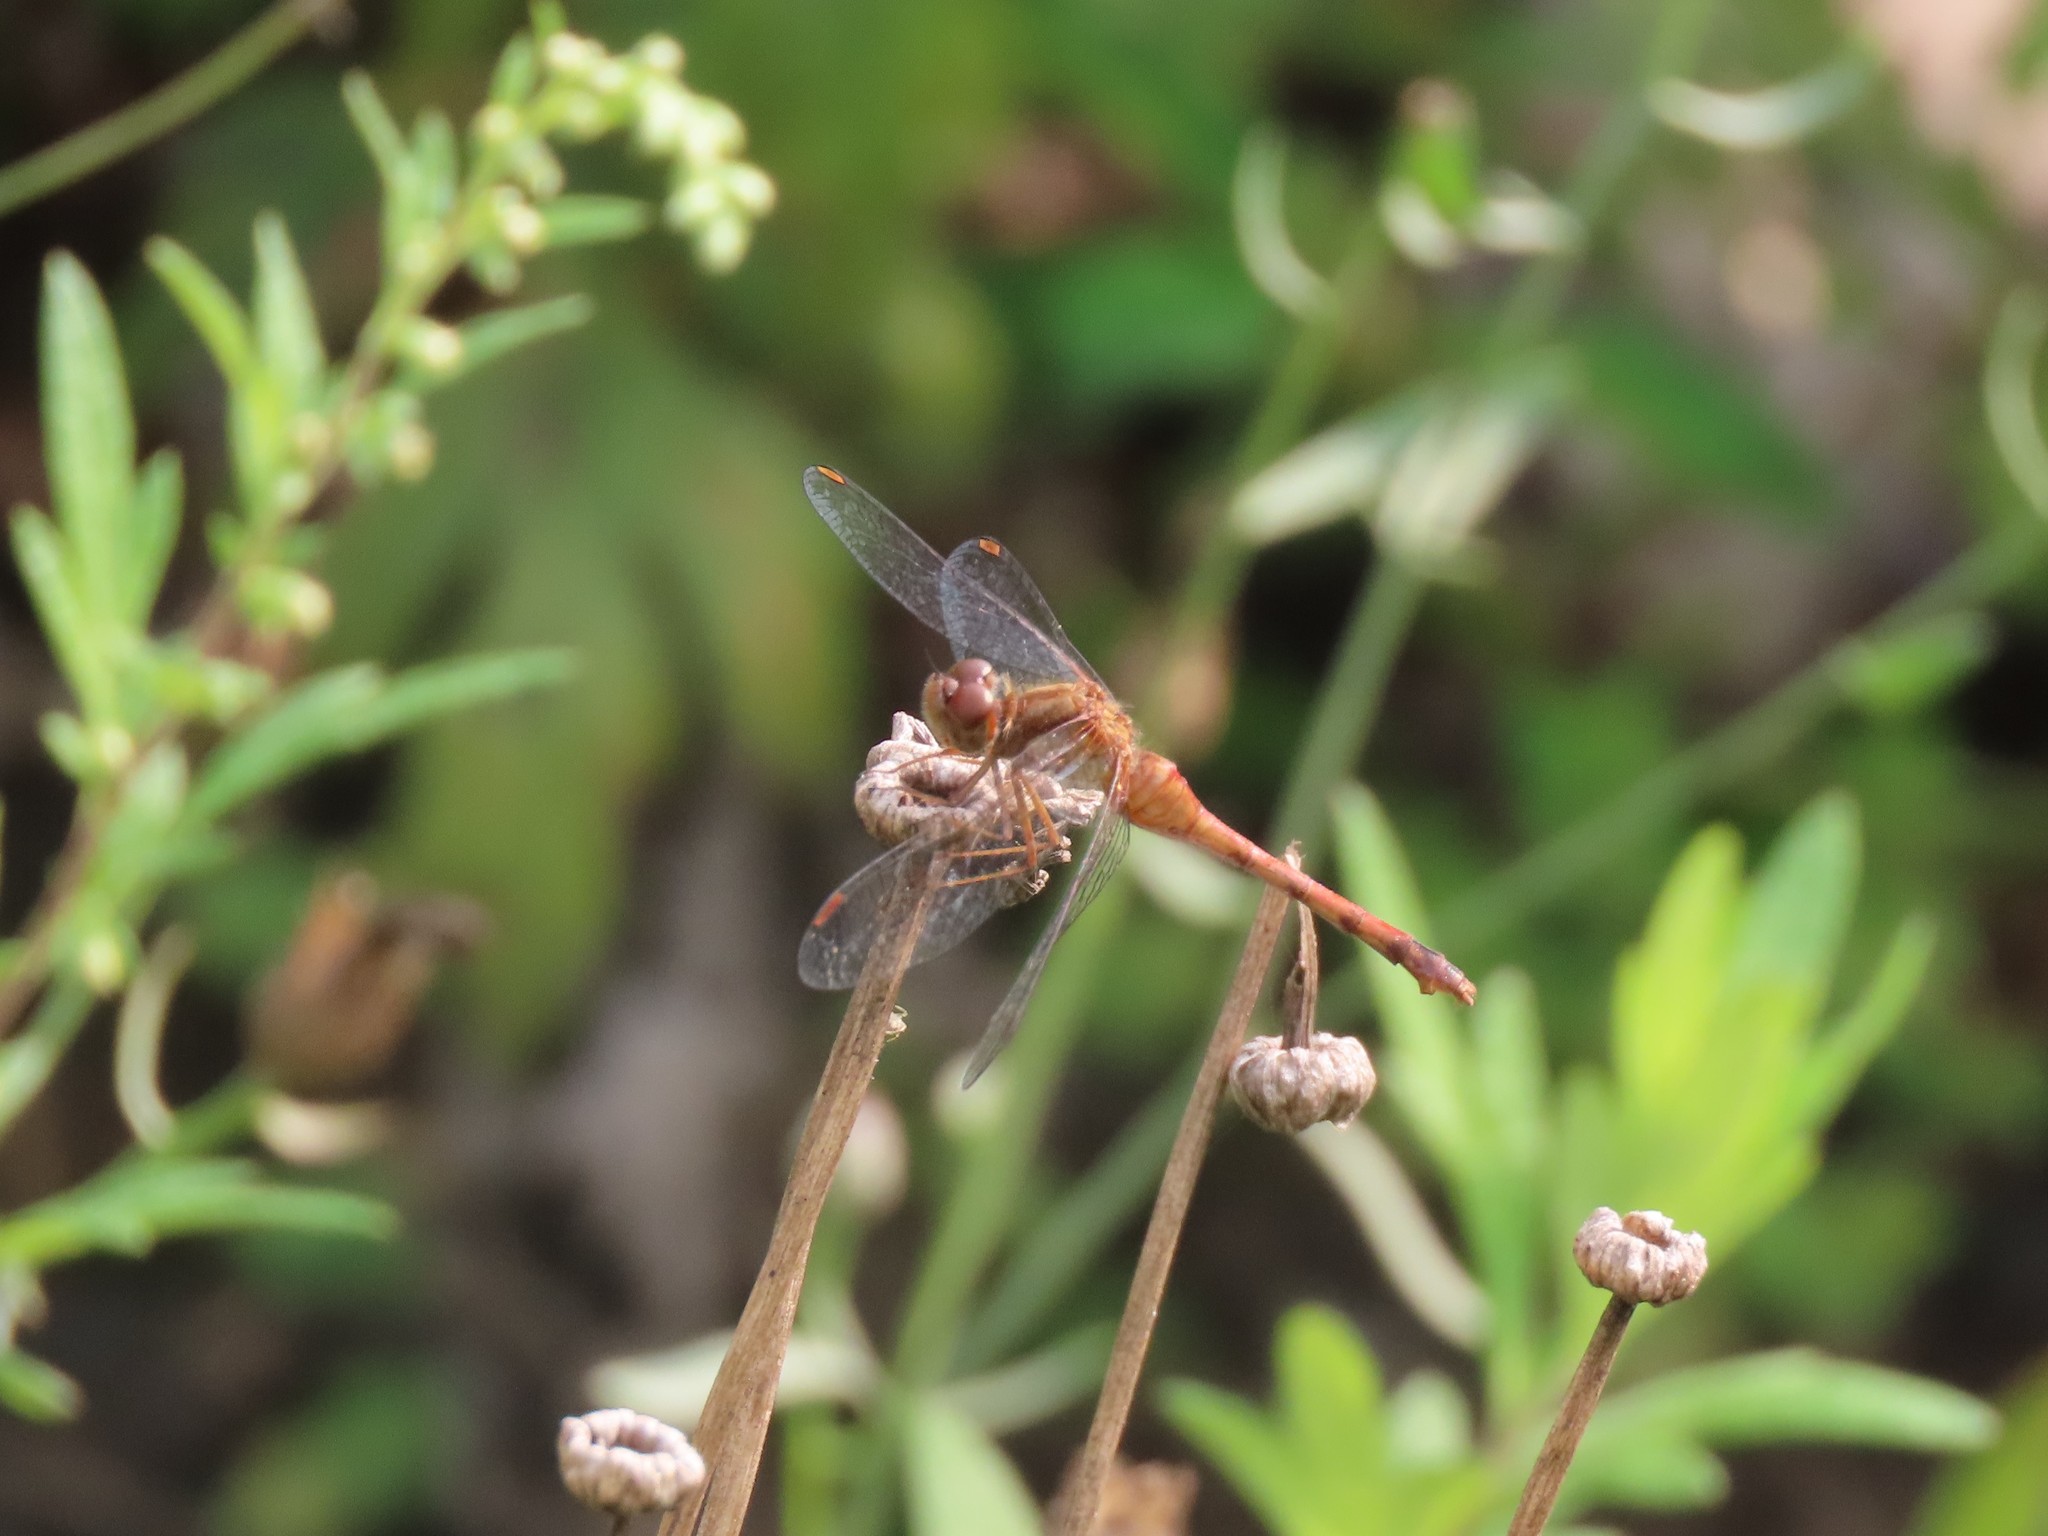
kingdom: Animalia
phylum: Arthropoda
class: Insecta
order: Odonata
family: Libellulidae
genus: Sympetrum
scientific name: Sympetrum vicinum
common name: Autumn meadowhawk
